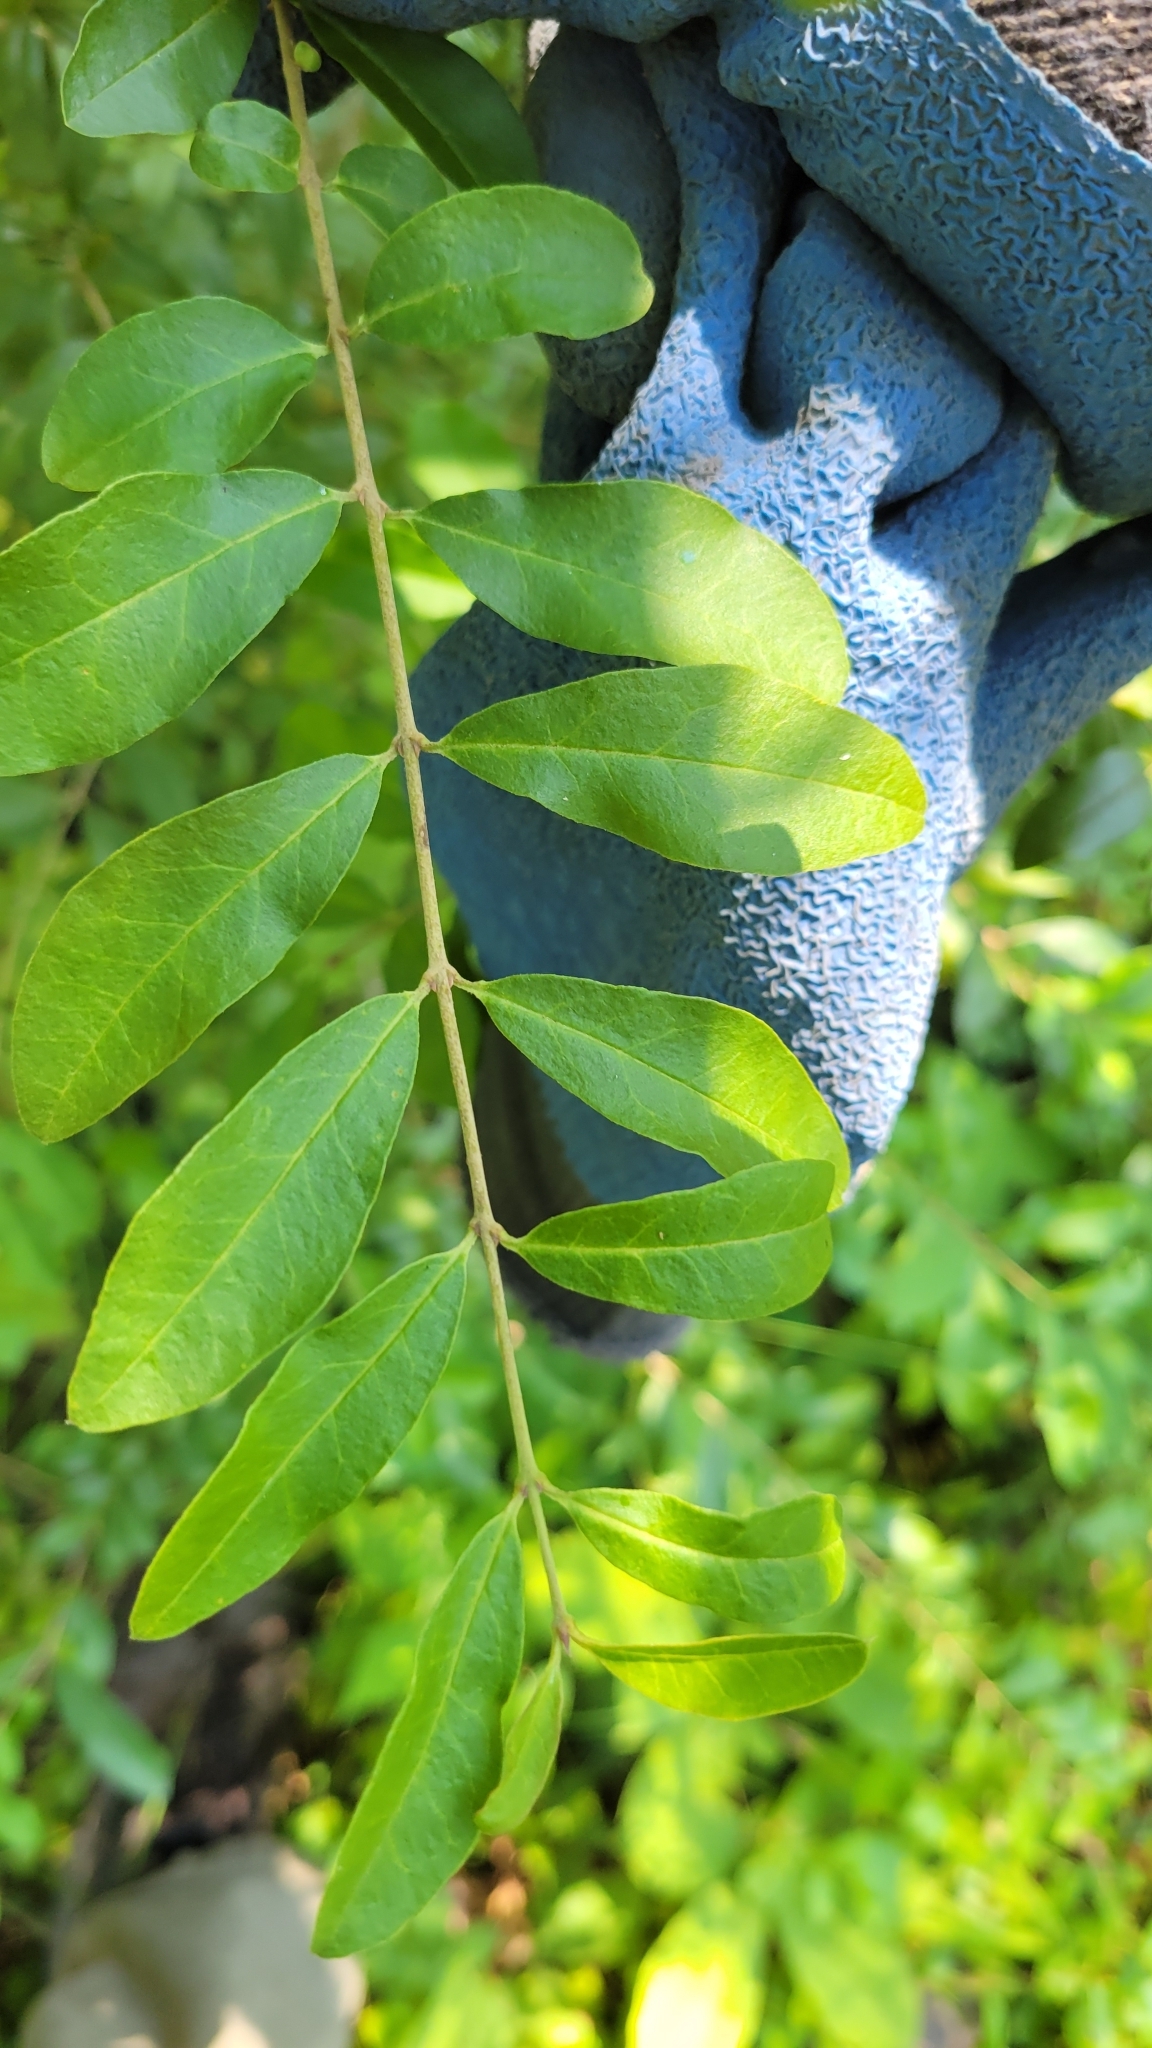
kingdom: Plantae
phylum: Tracheophyta
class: Magnoliopsida
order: Lamiales
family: Oleaceae
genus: Ligustrum
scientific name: Ligustrum obtusifolium
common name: Border privet
